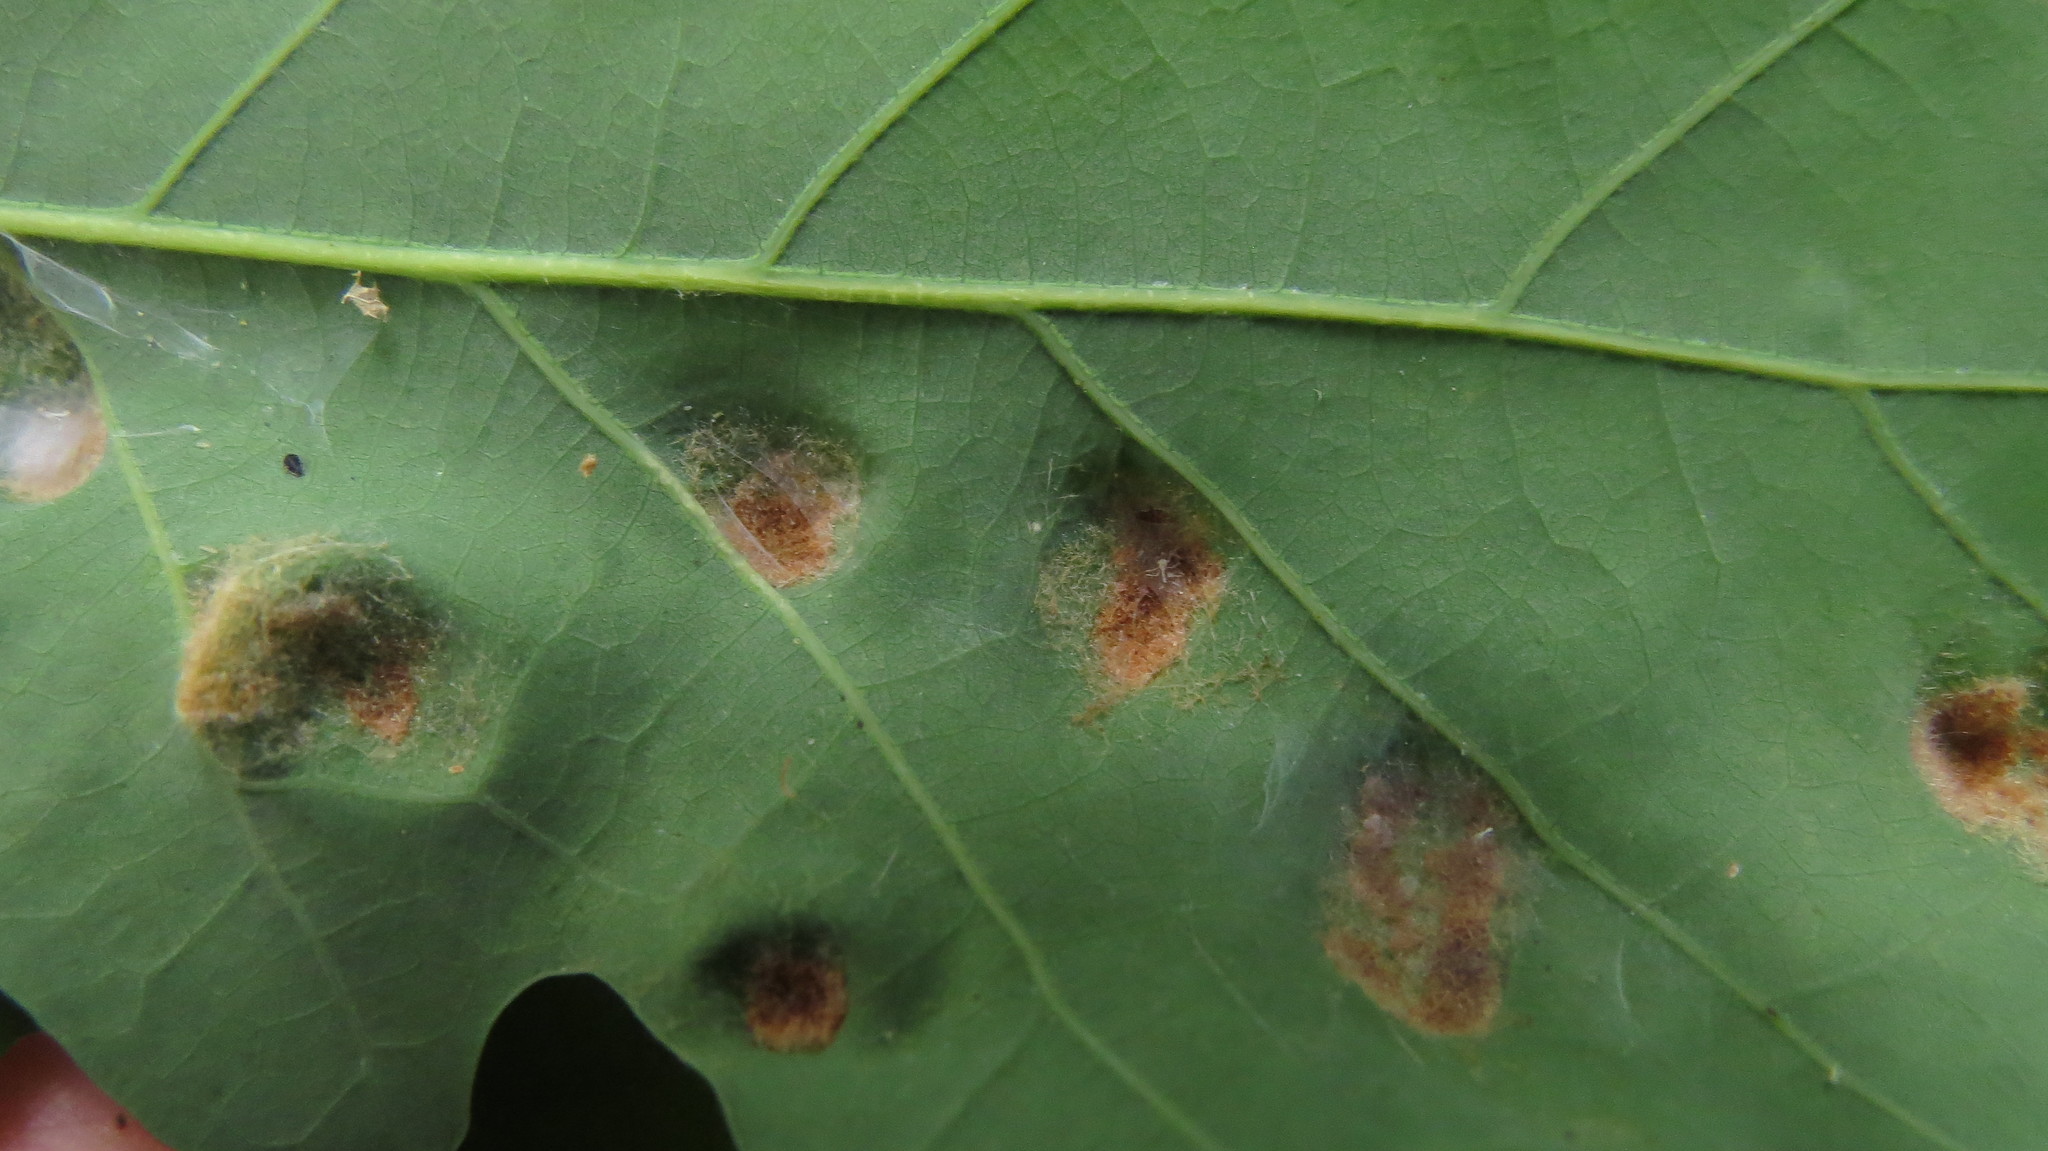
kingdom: Animalia
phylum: Arthropoda
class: Arachnida
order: Trombidiformes
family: Eriophyidae
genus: Aceria
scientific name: Aceria
